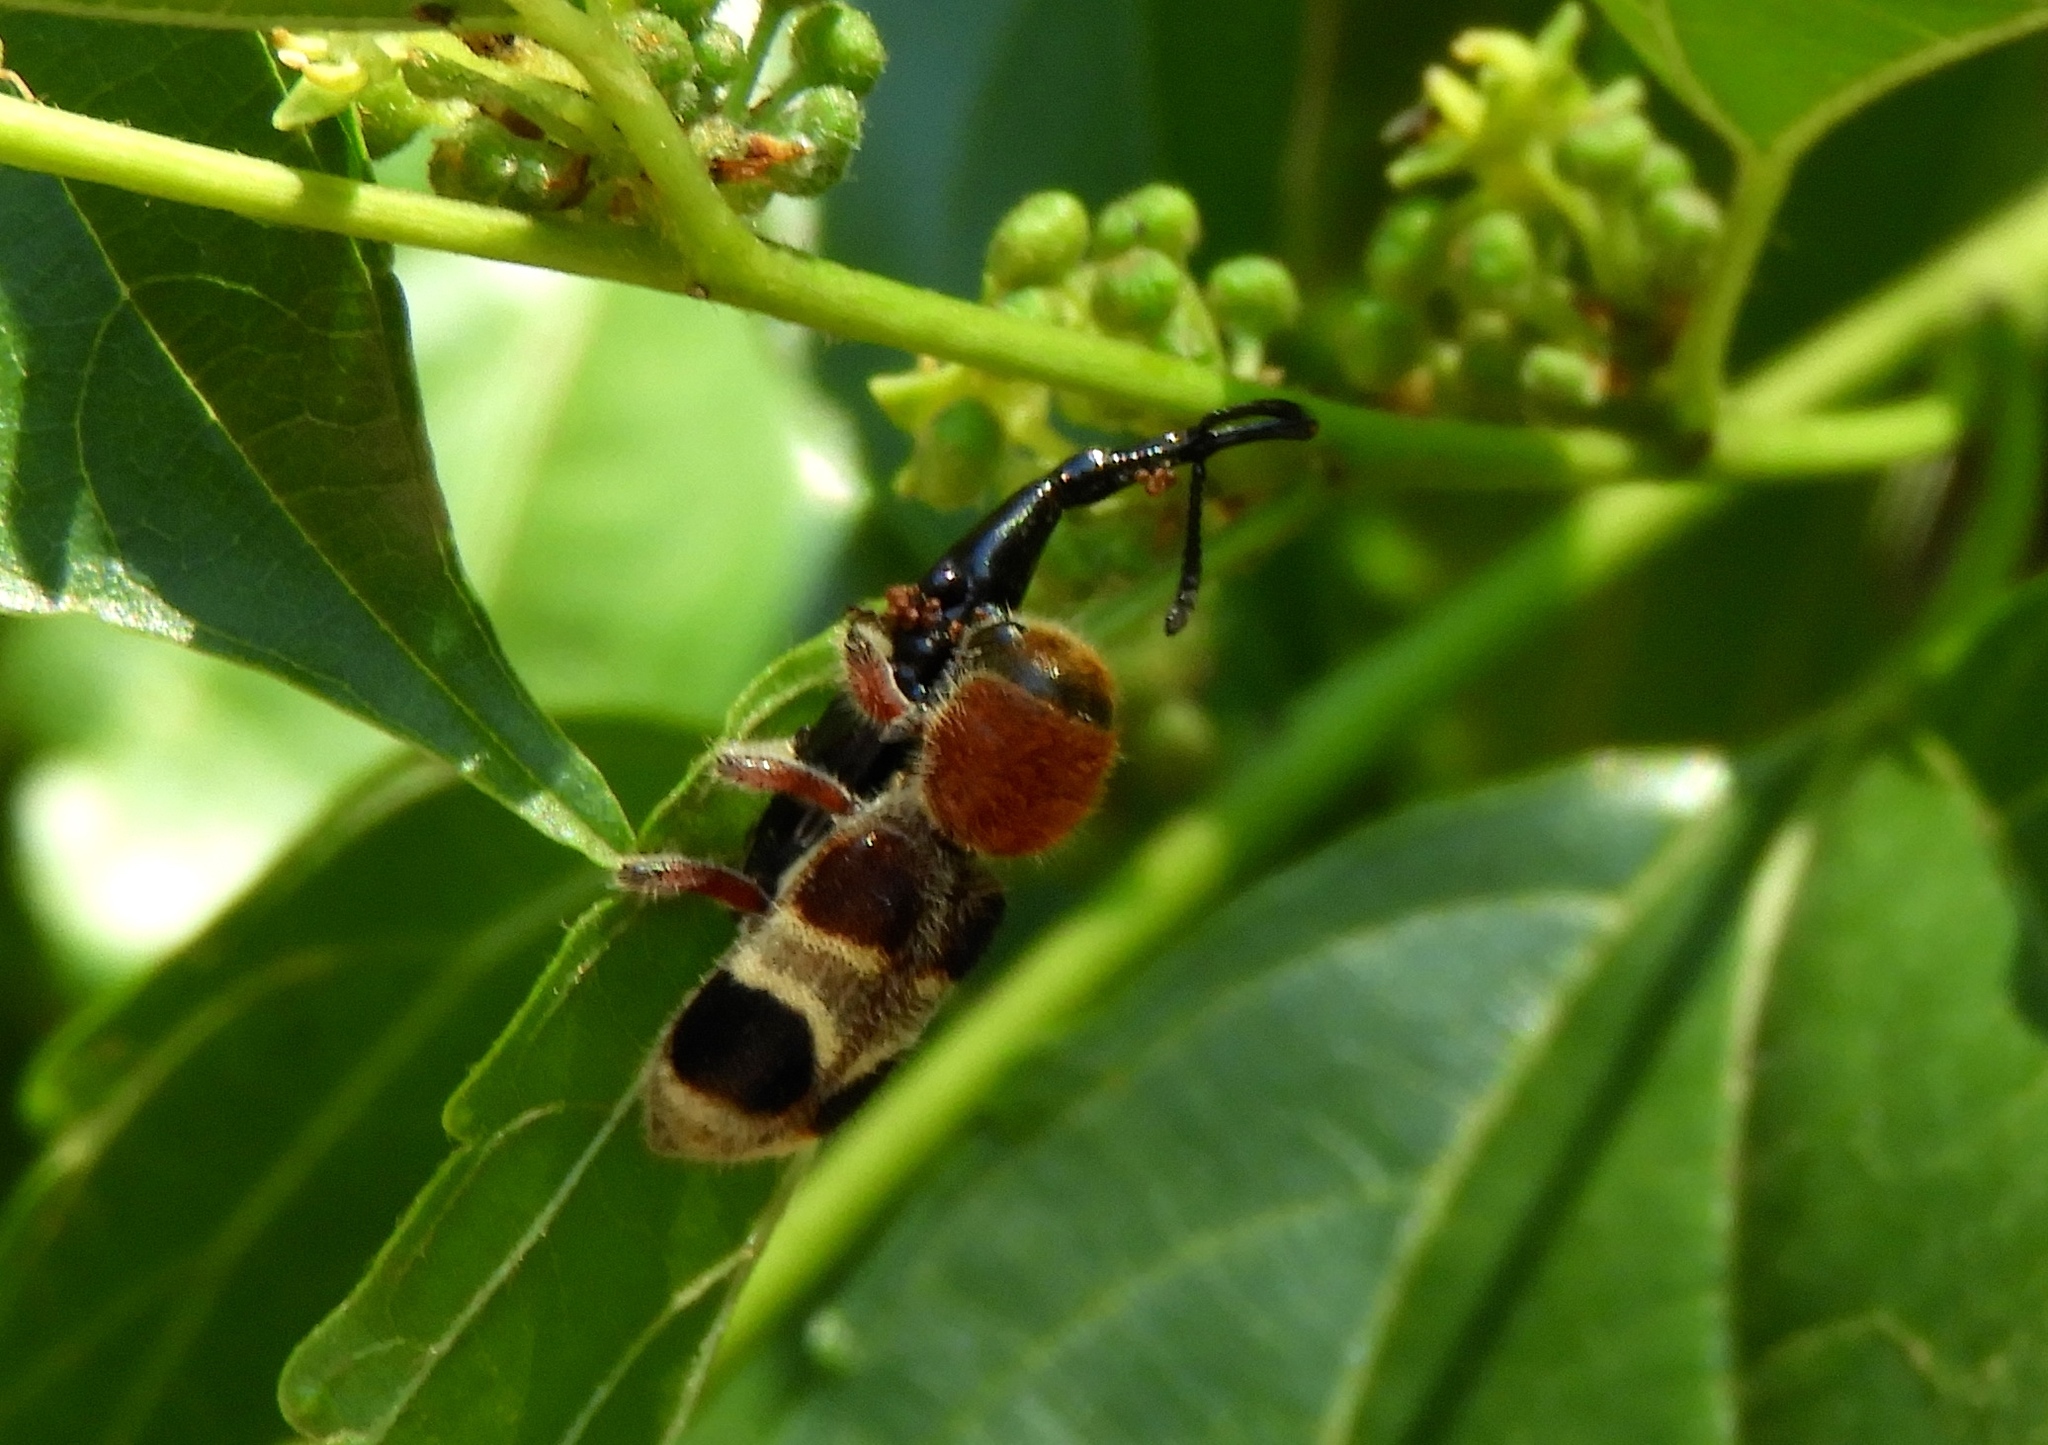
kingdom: Animalia
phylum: Arthropoda
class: Insecta
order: Coleoptera
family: Cleridae
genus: Enoclerus
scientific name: Enoclerus quadriguttatus
